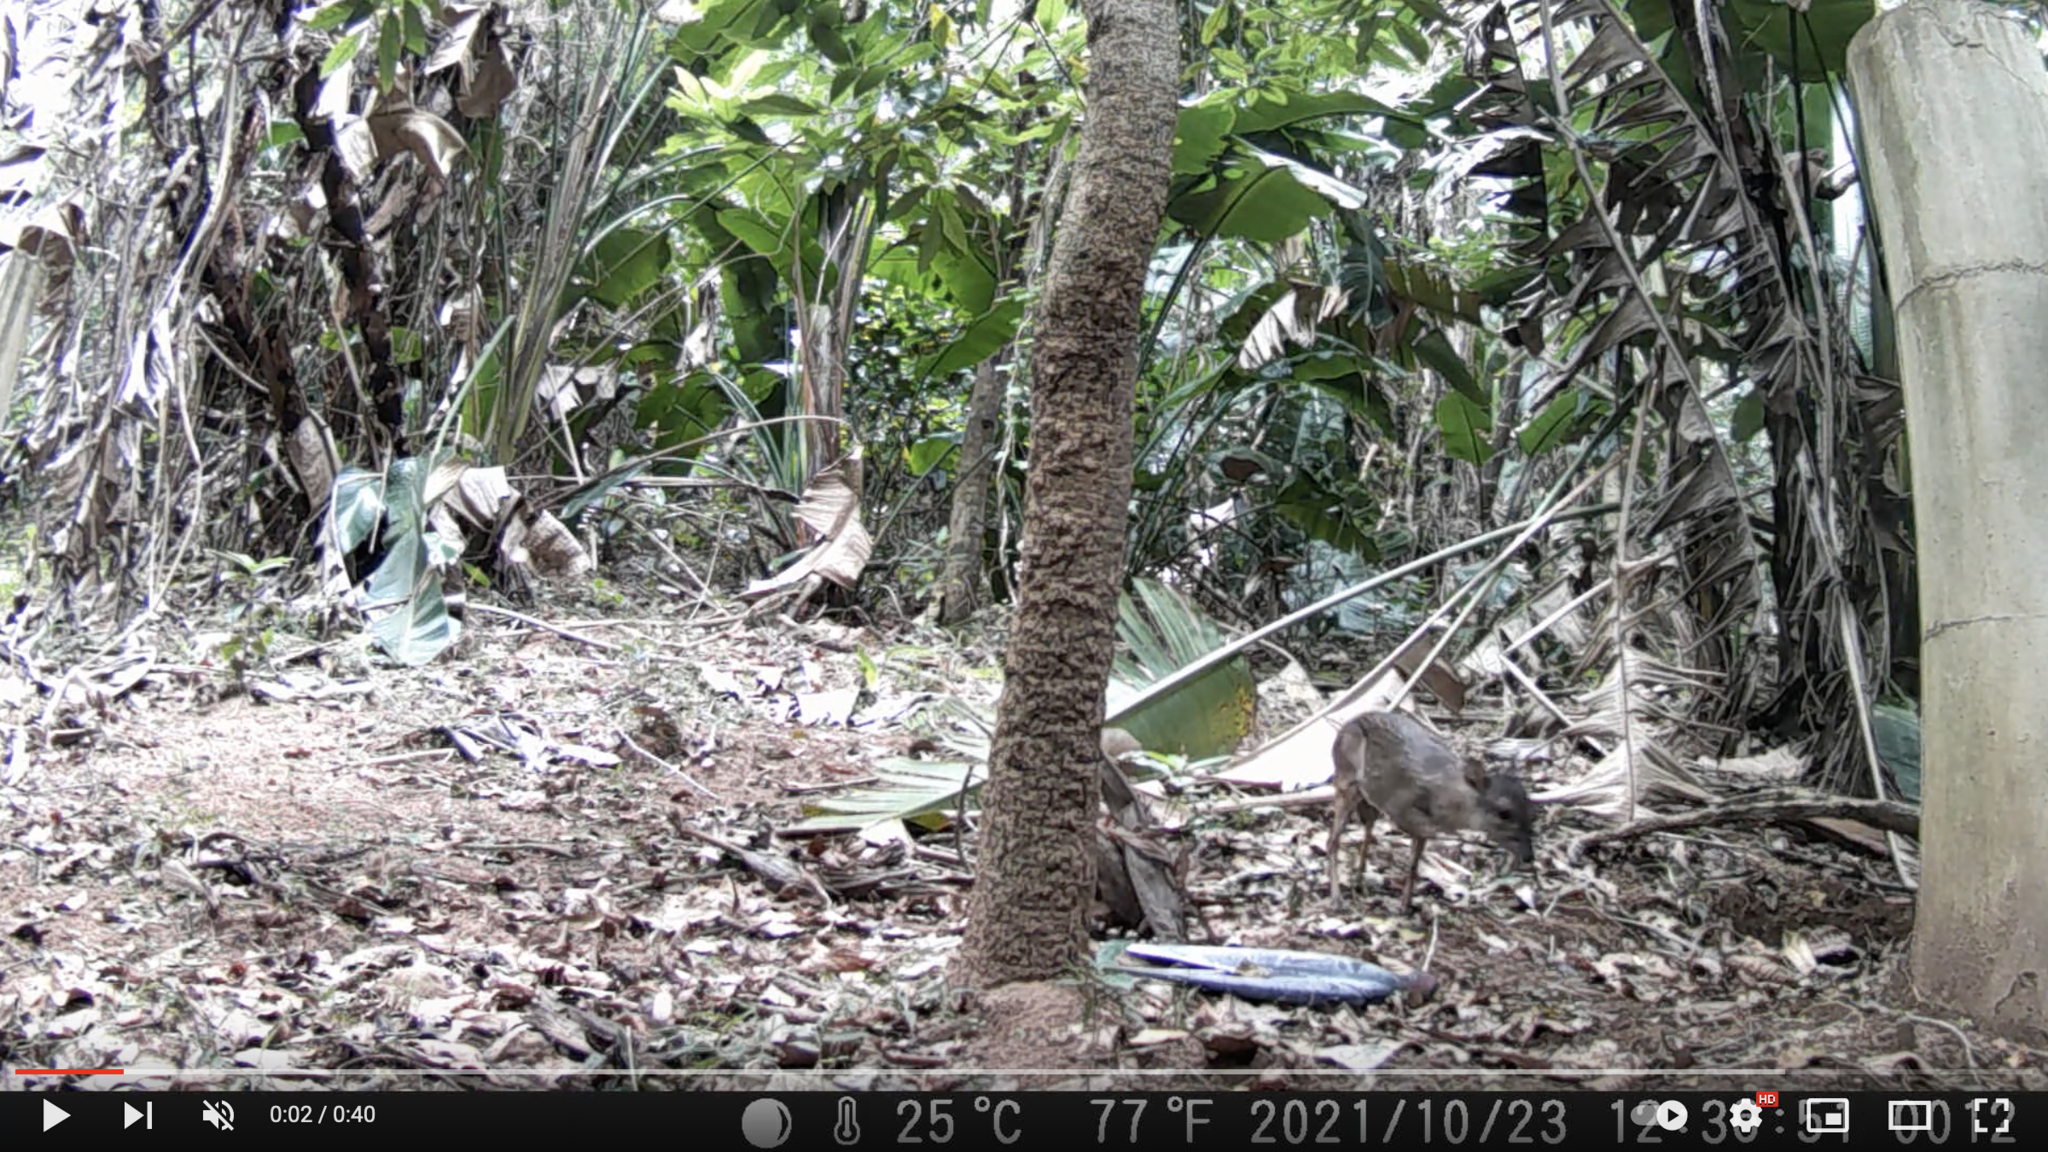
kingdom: Animalia
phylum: Chordata
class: Mammalia
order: Artiodactyla
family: Bovidae
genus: Philantomba
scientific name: Philantomba monticola
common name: Blue duiker
